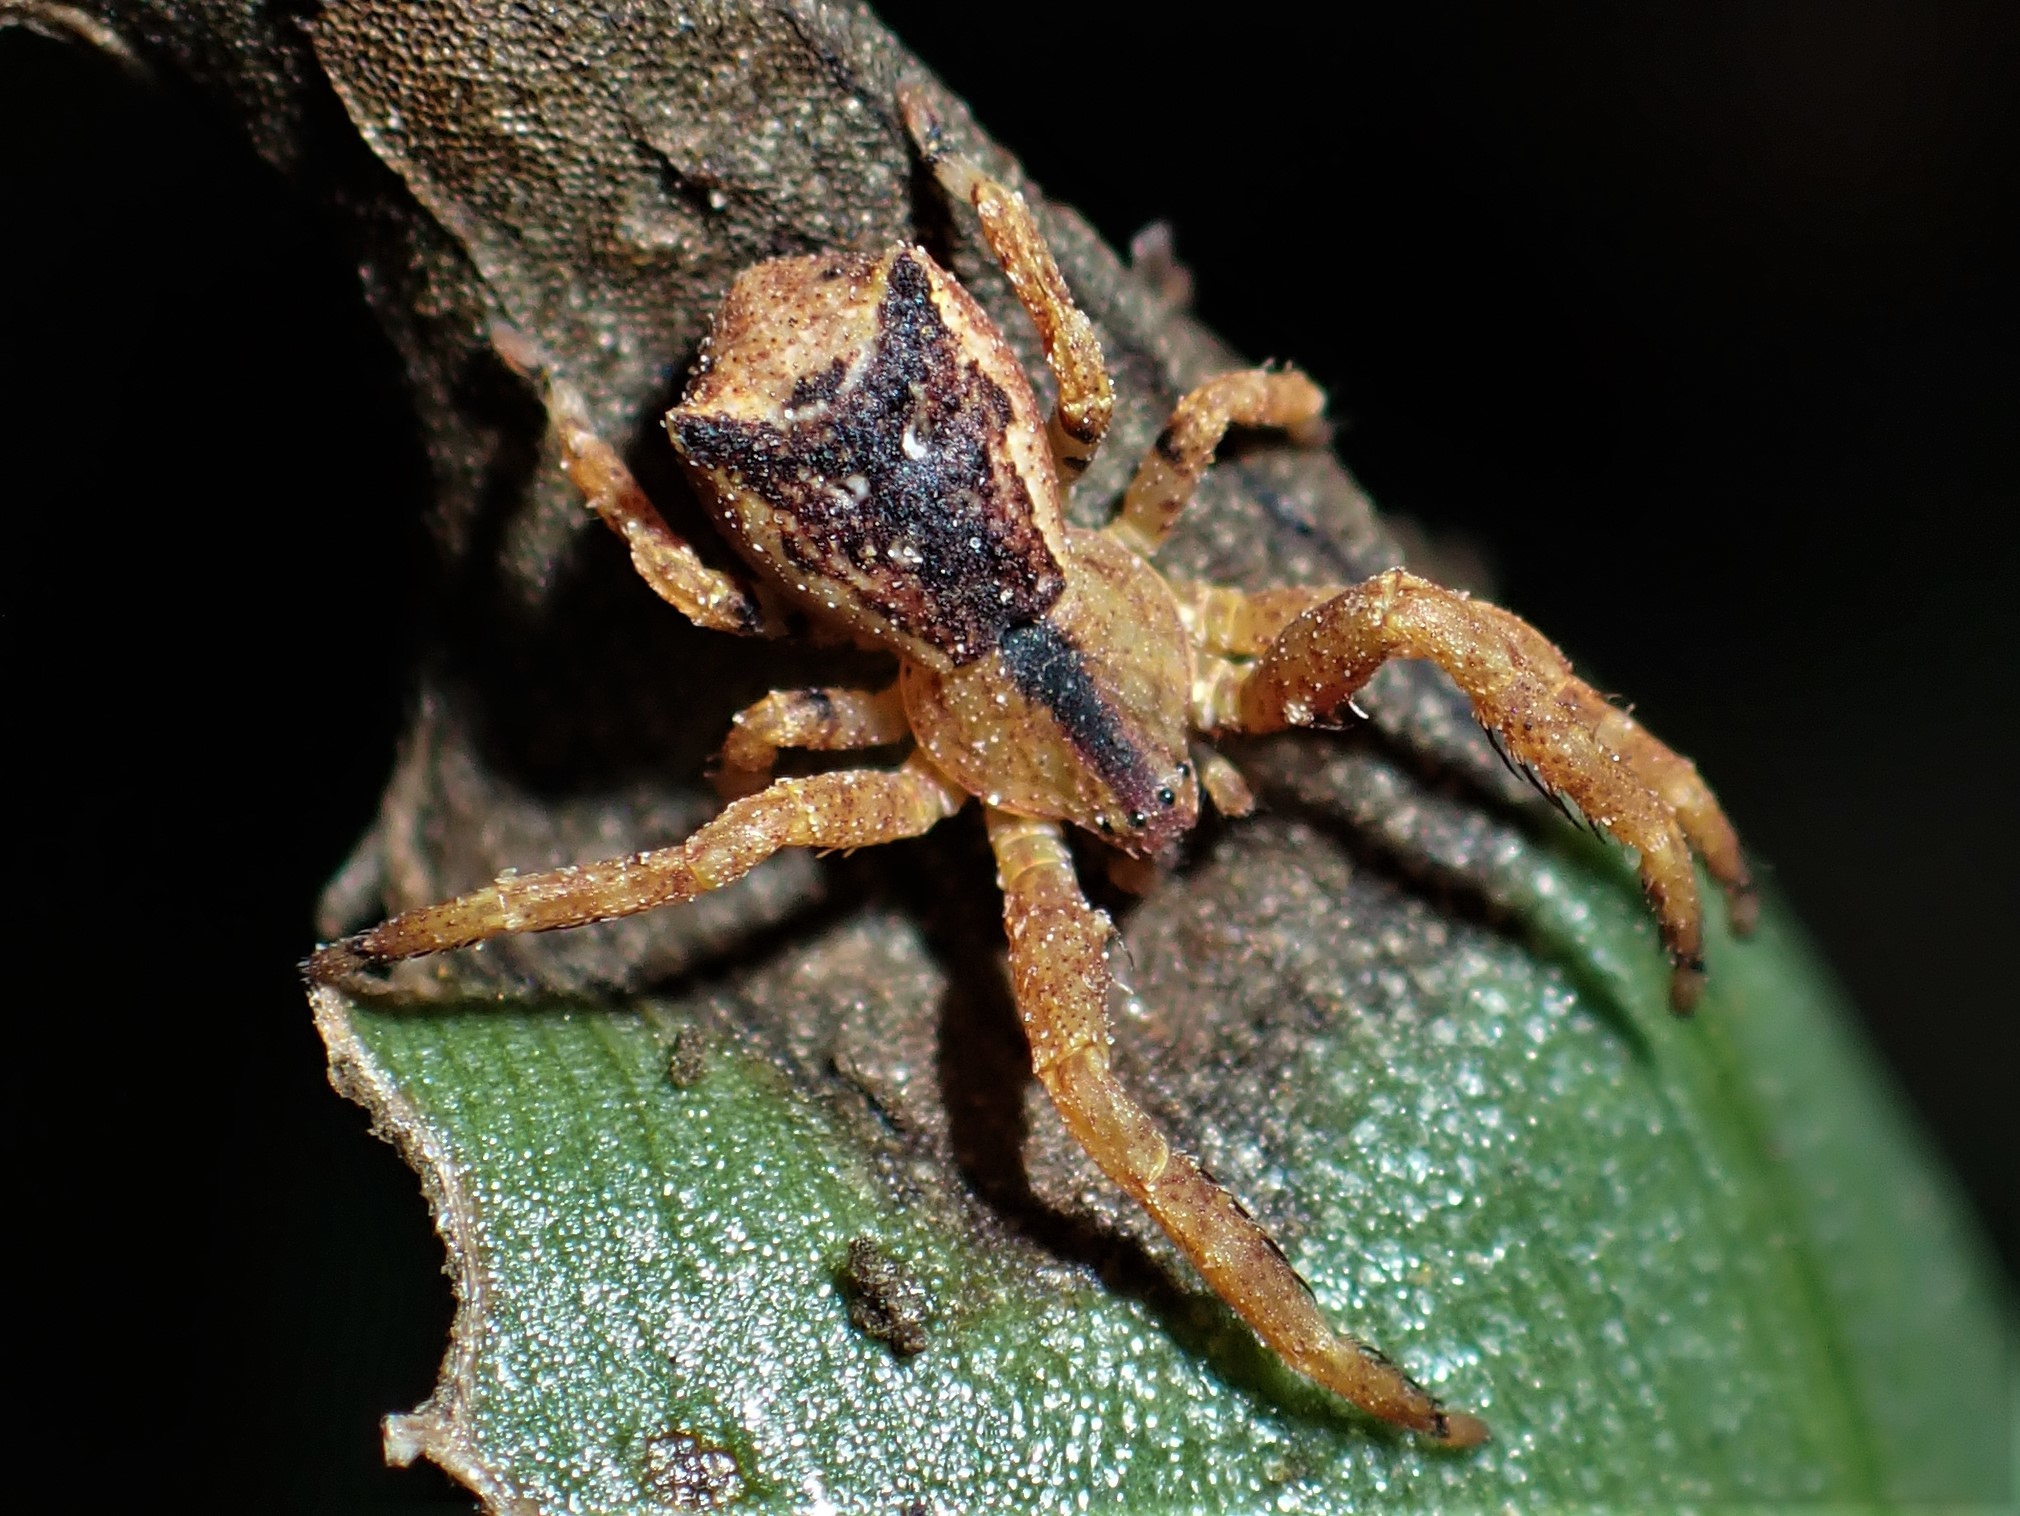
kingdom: Animalia
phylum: Arthropoda
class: Arachnida
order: Araneae
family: Thomisidae
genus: Sidymella
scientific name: Sidymella angularis
